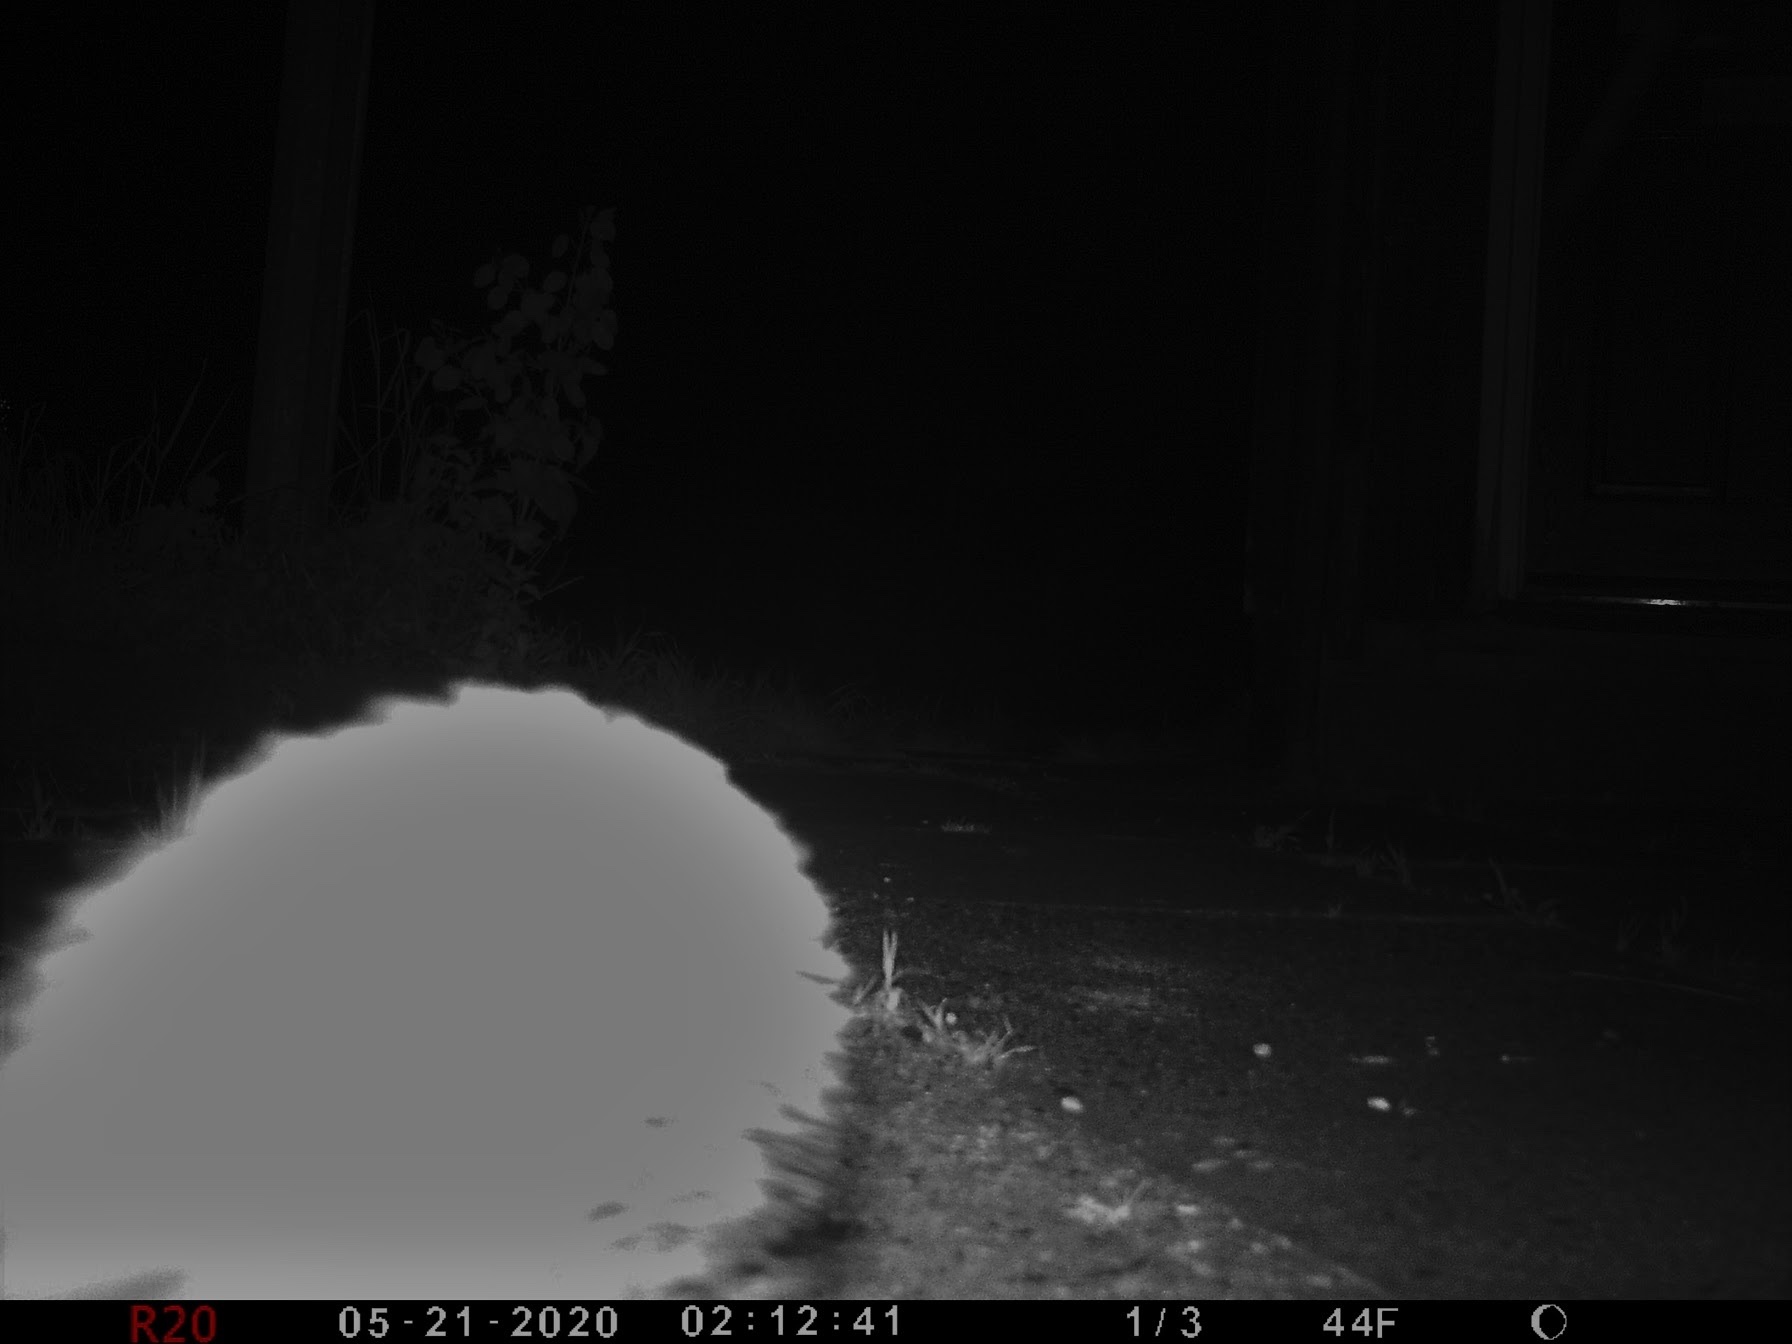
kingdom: Animalia
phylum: Chordata
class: Mammalia
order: Erinaceomorpha
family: Erinaceidae
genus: Erinaceus
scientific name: Erinaceus europaeus
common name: West european hedgehog
